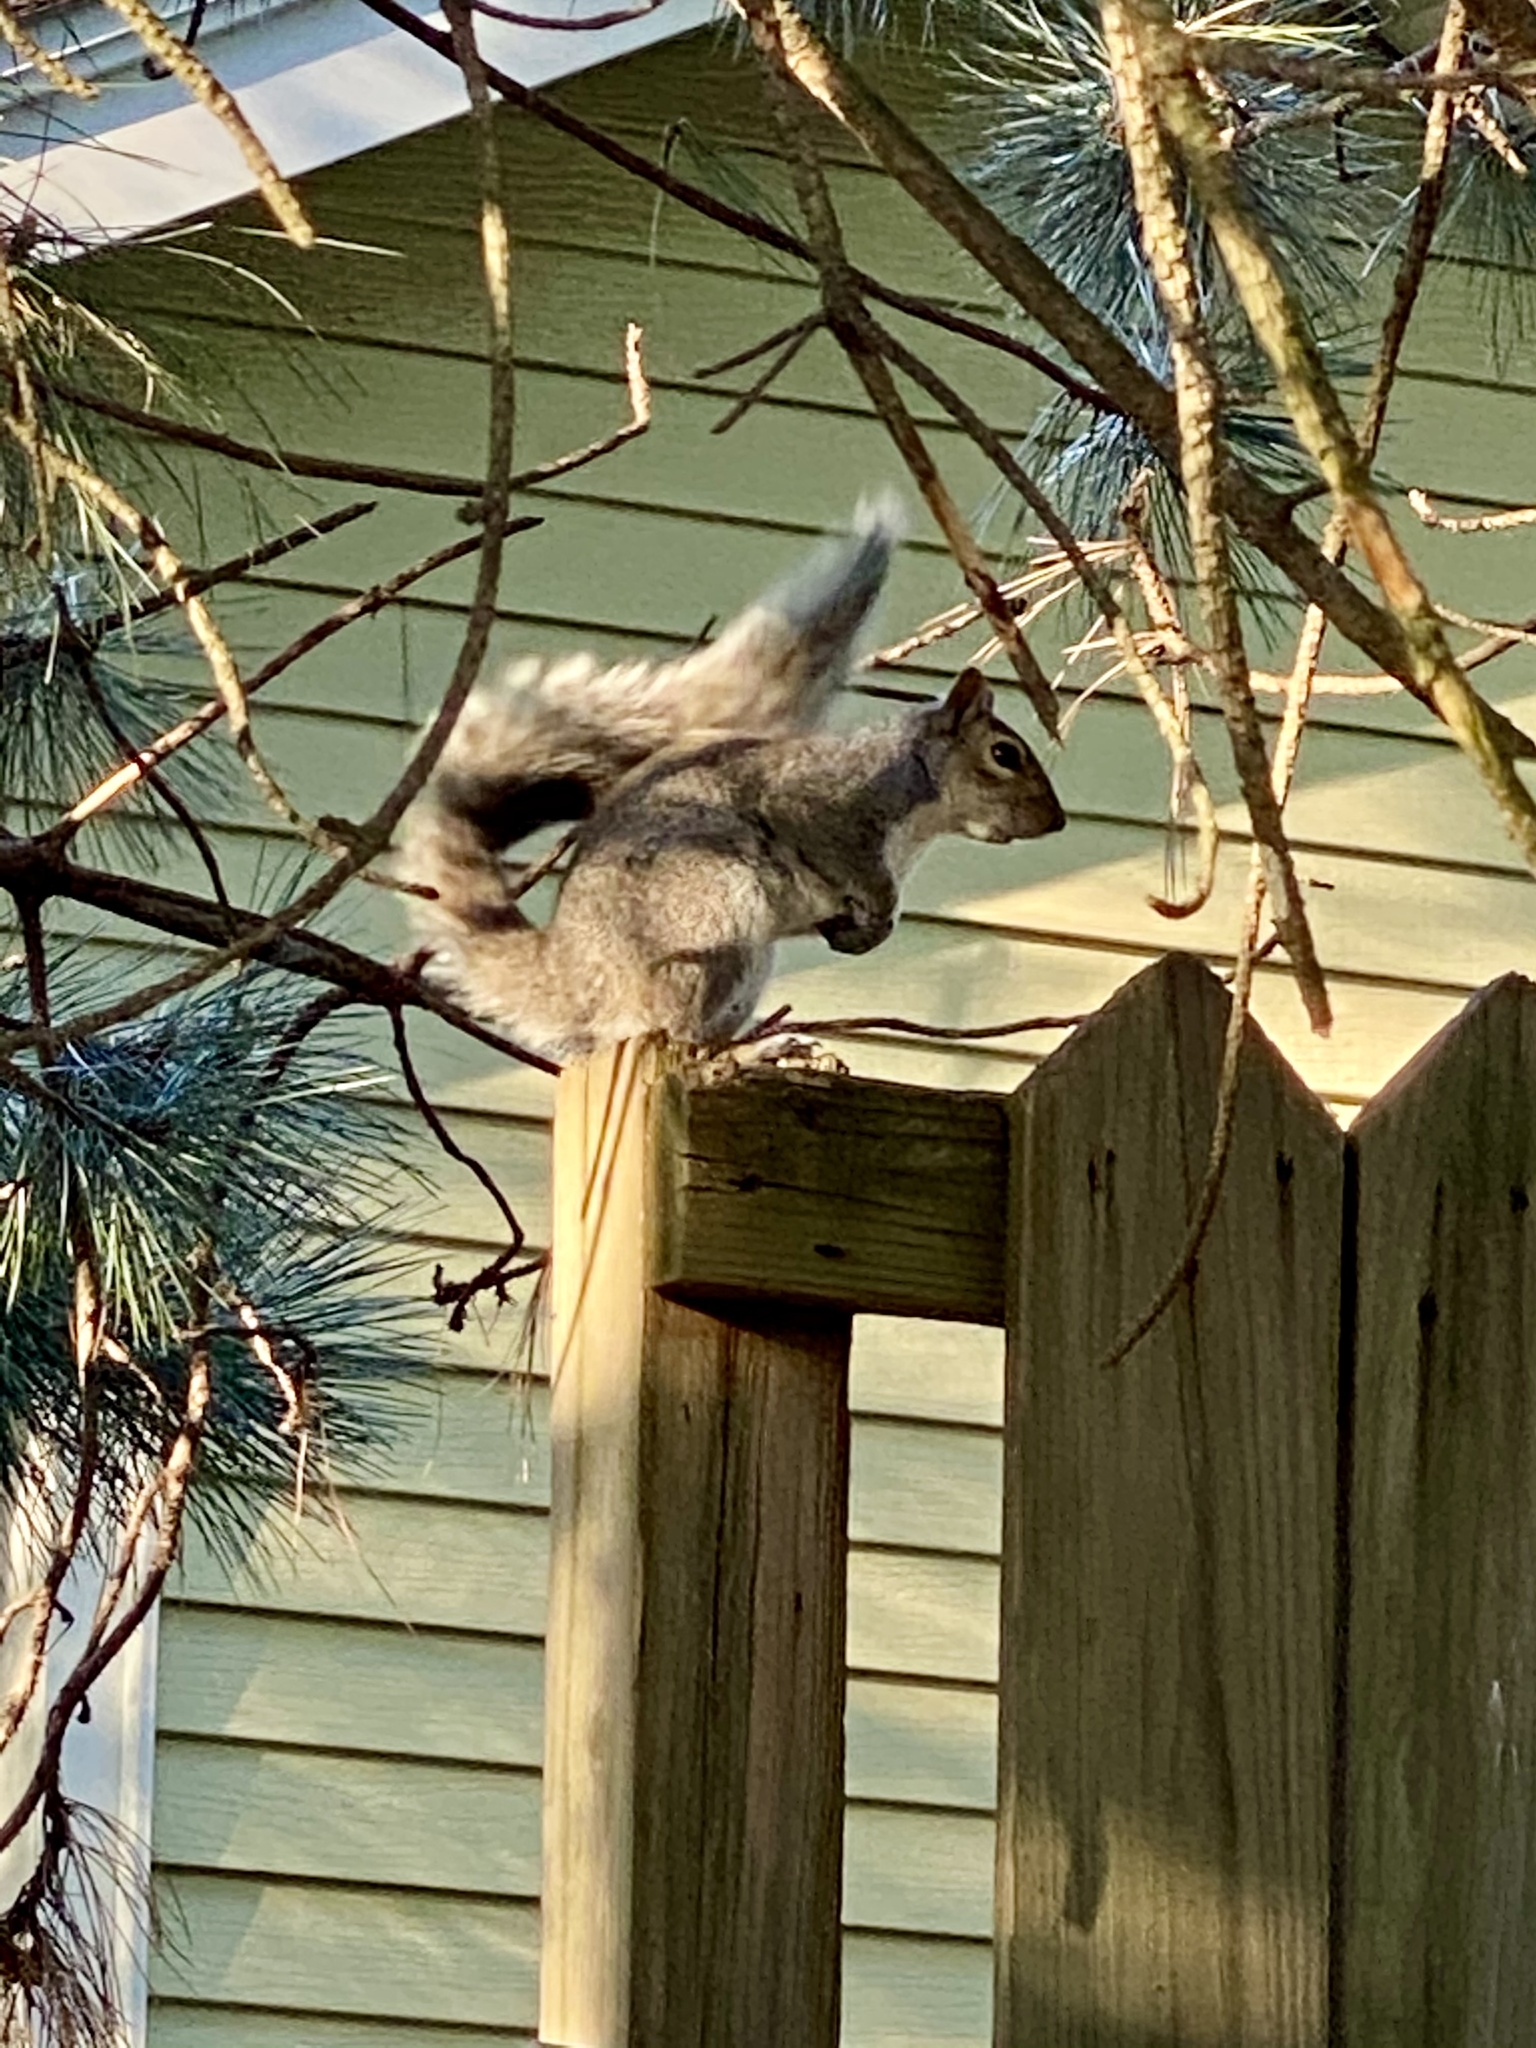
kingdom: Animalia
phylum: Chordata
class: Mammalia
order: Rodentia
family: Sciuridae
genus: Sciurus
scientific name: Sciurus carolinensis
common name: Eastern gray squirrel
